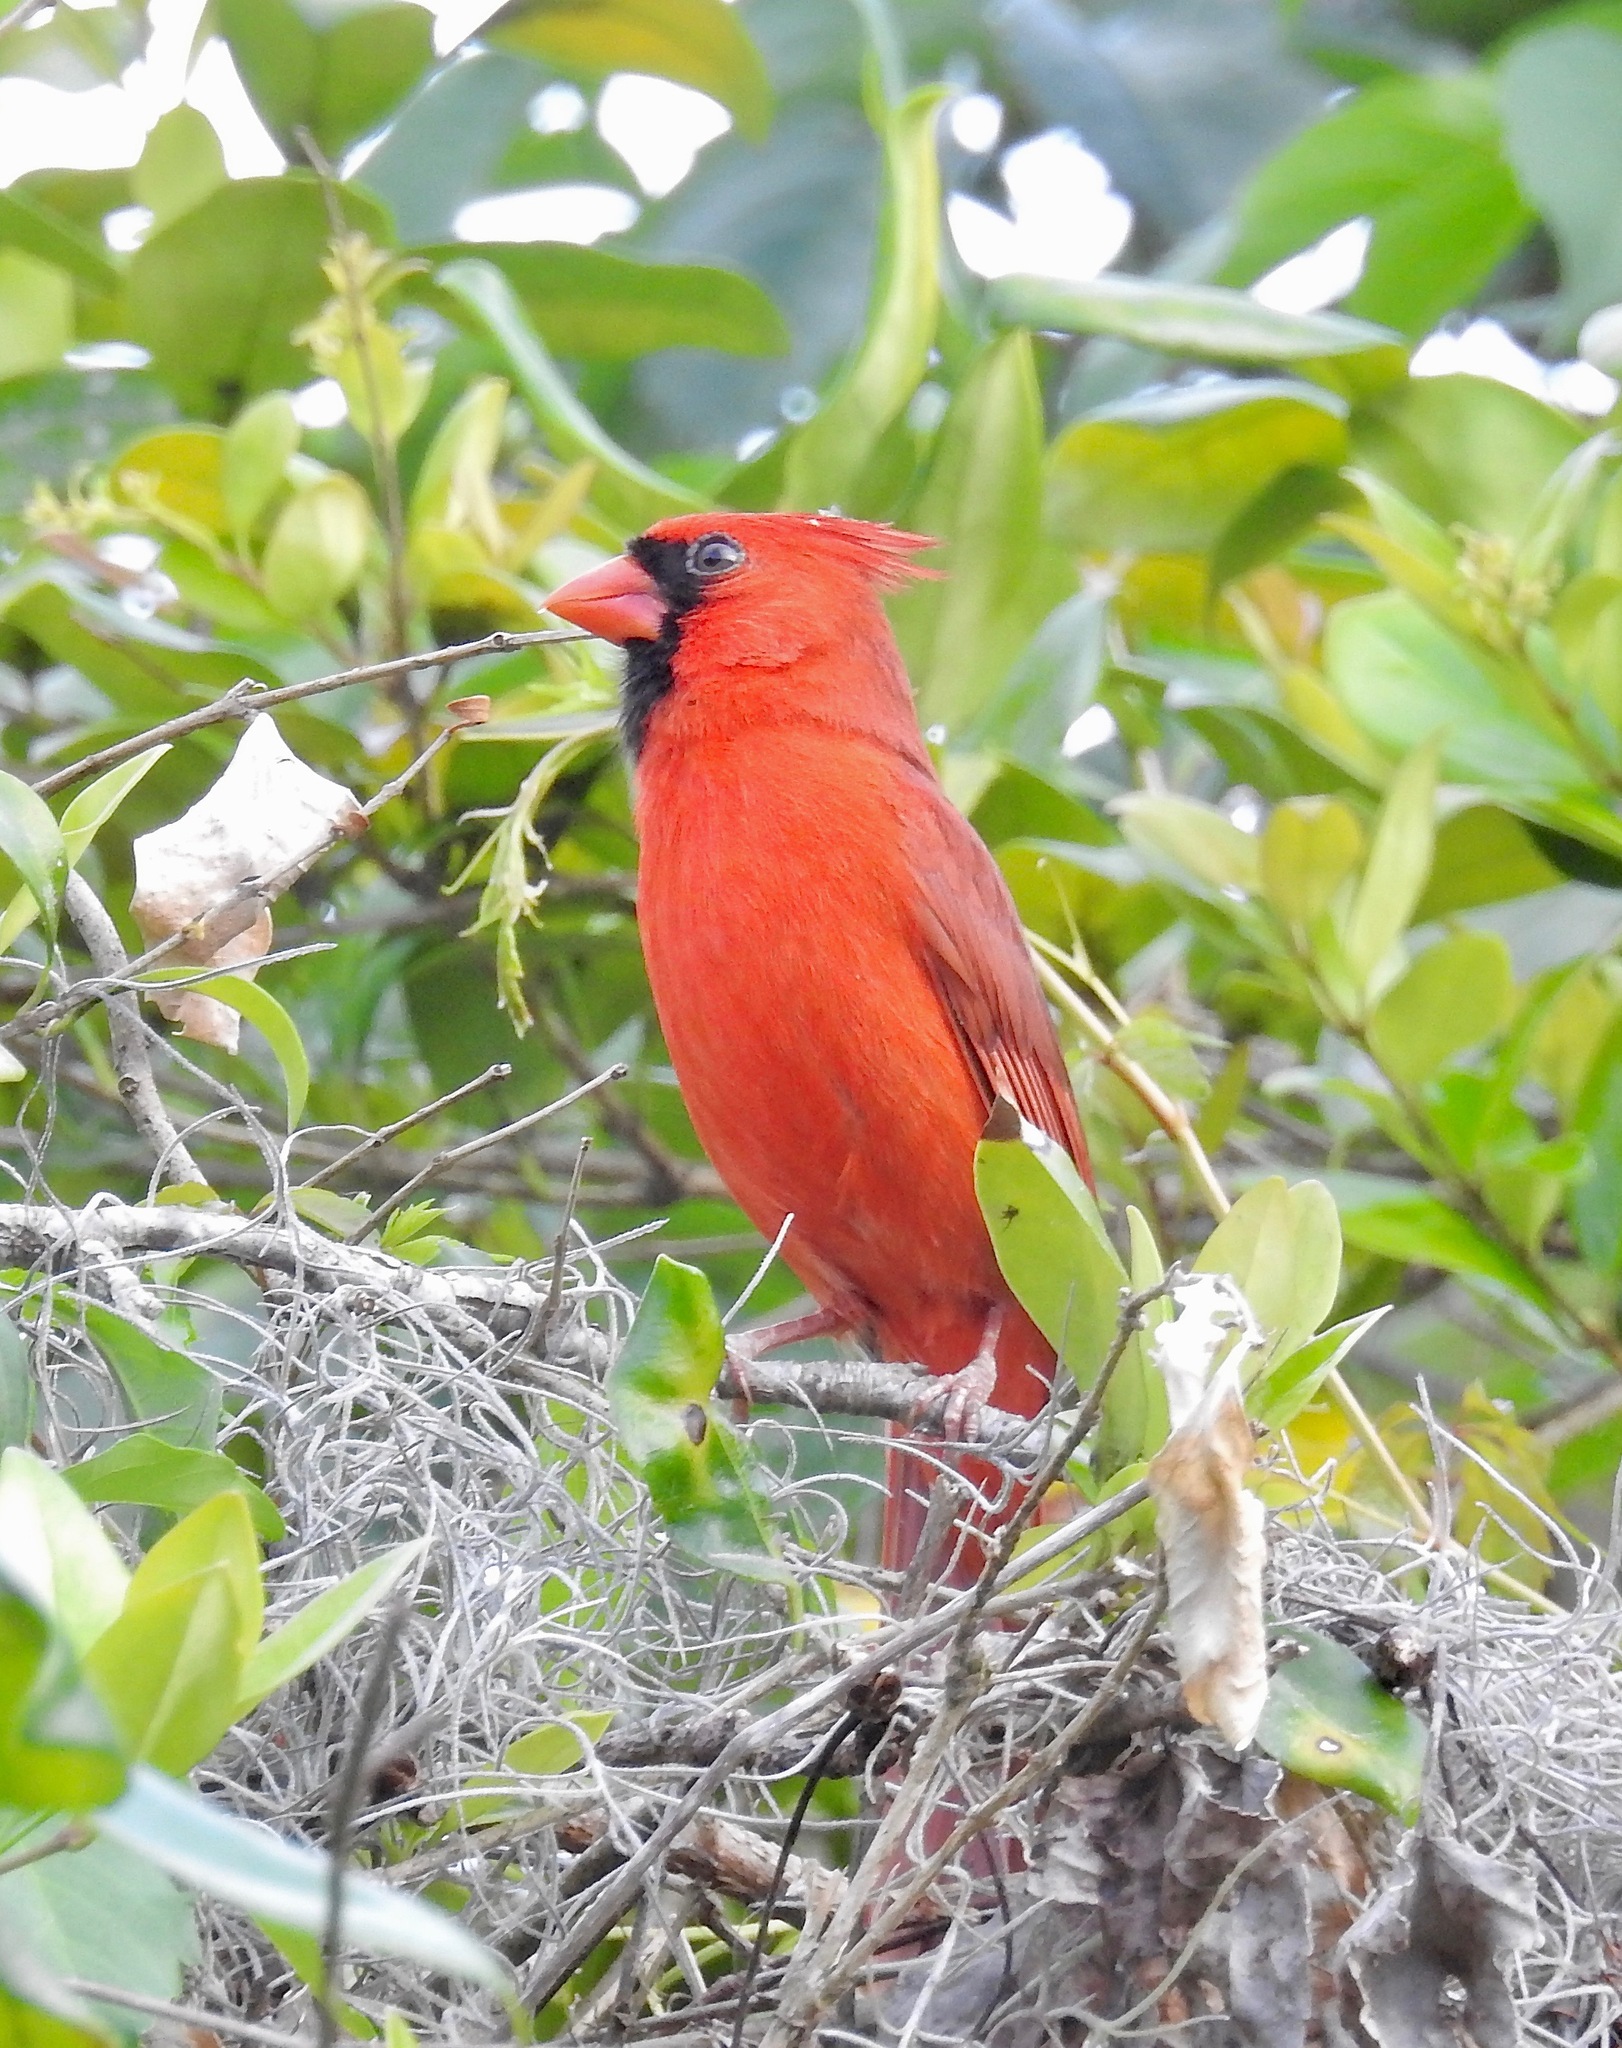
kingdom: Animalia
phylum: Chordata
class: Aves
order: Passeriformes
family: Cardinalidae
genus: Cardinalis
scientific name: Cardinalis cardinalis
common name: Northern cardinal
